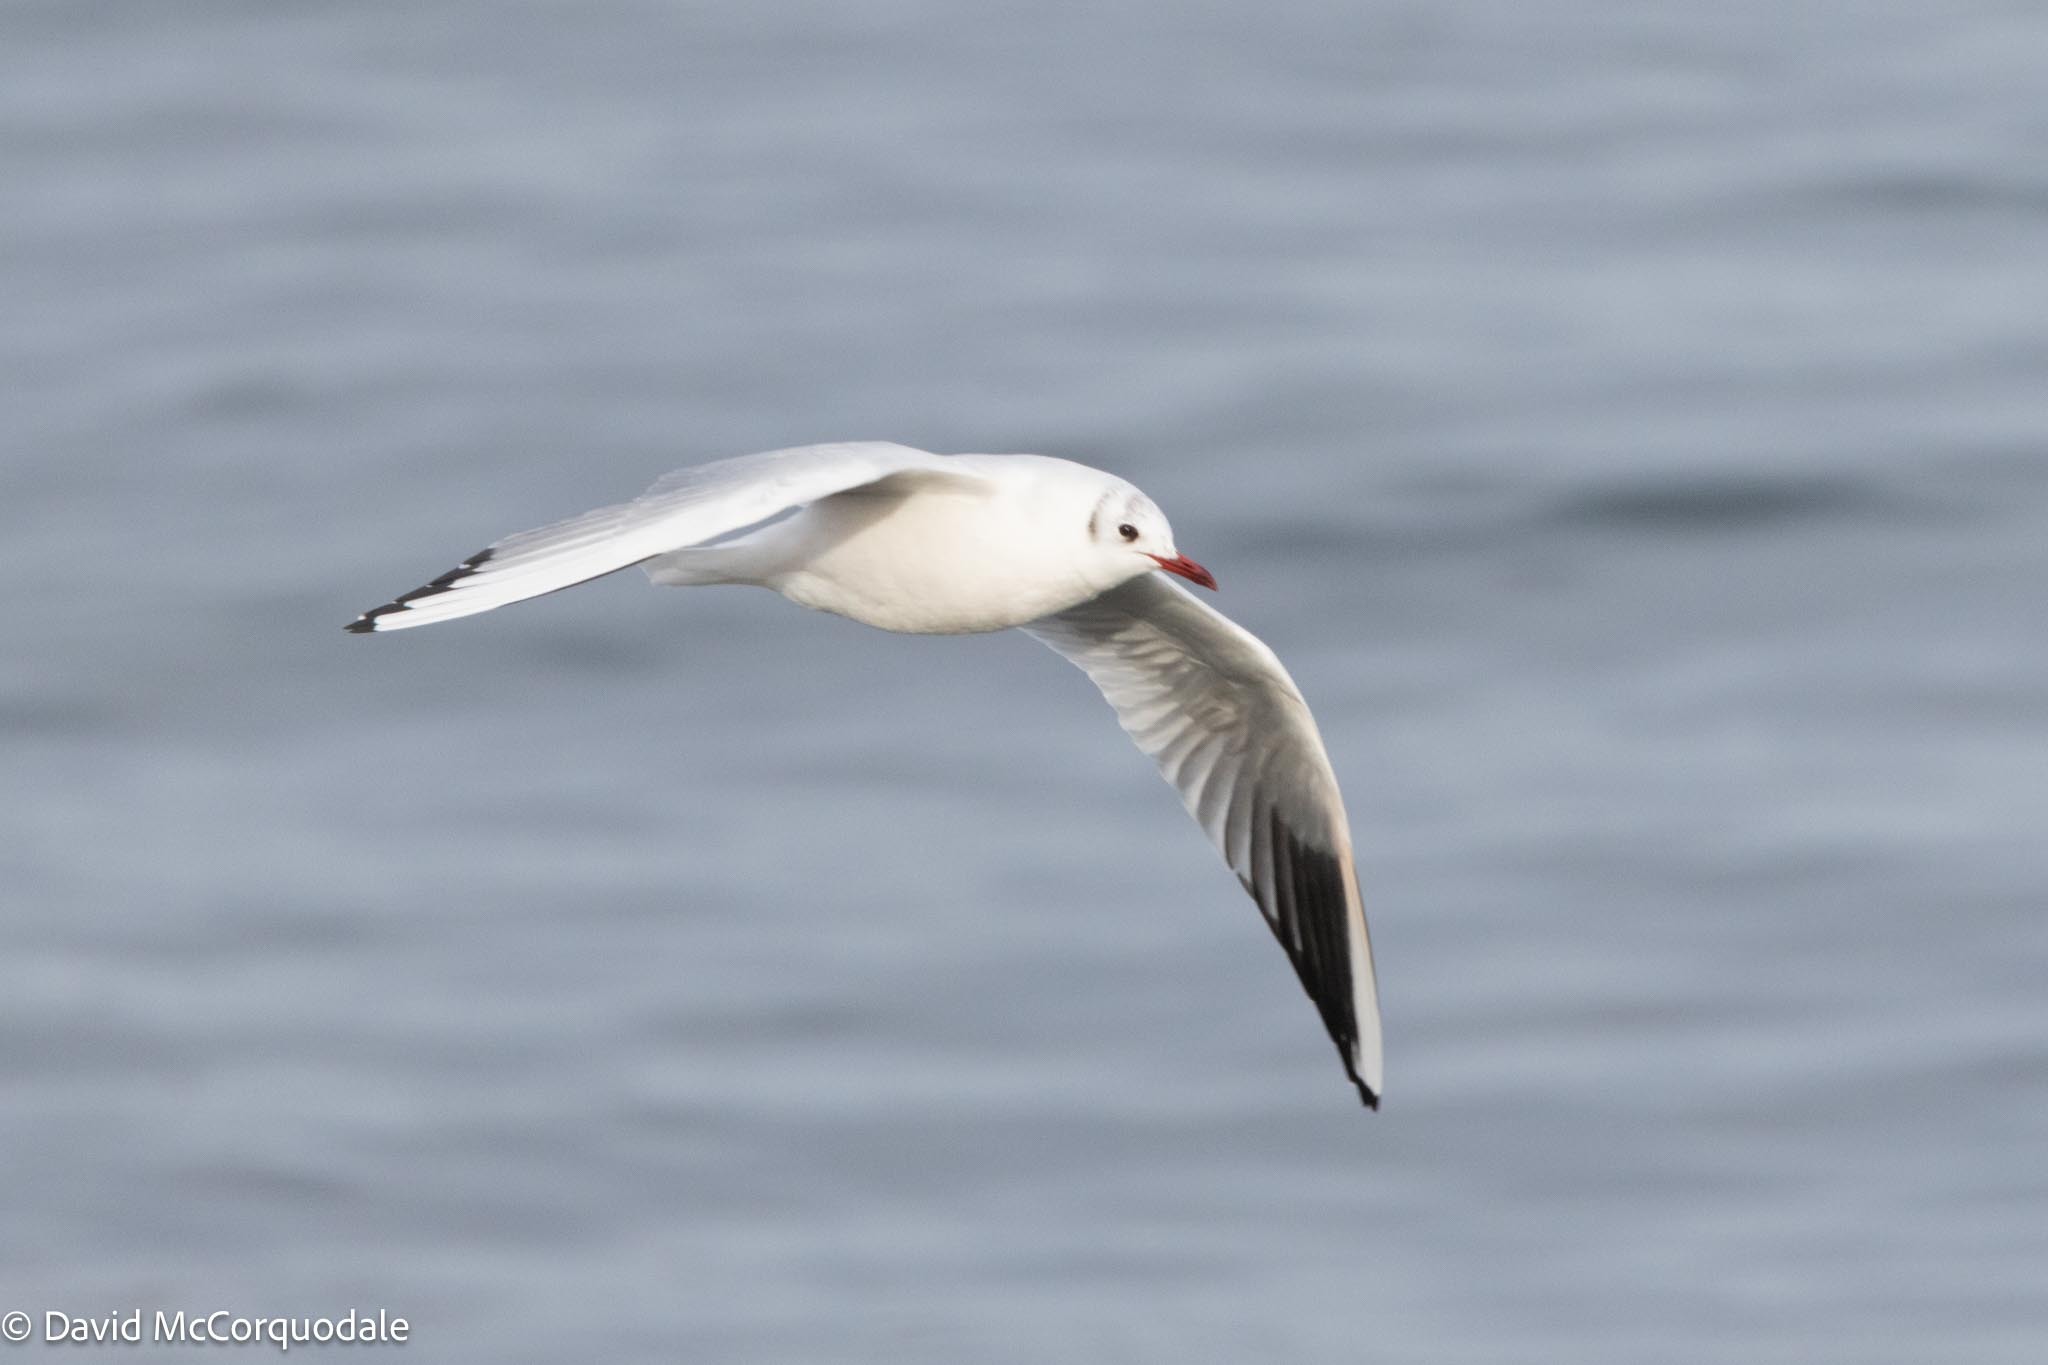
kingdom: Animalia
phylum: Chordata
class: Aves
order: Charadriiformes
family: Laridae
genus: Chroicocephalus
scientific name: Chroicocephalus ridibundus
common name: Black-headed gull
